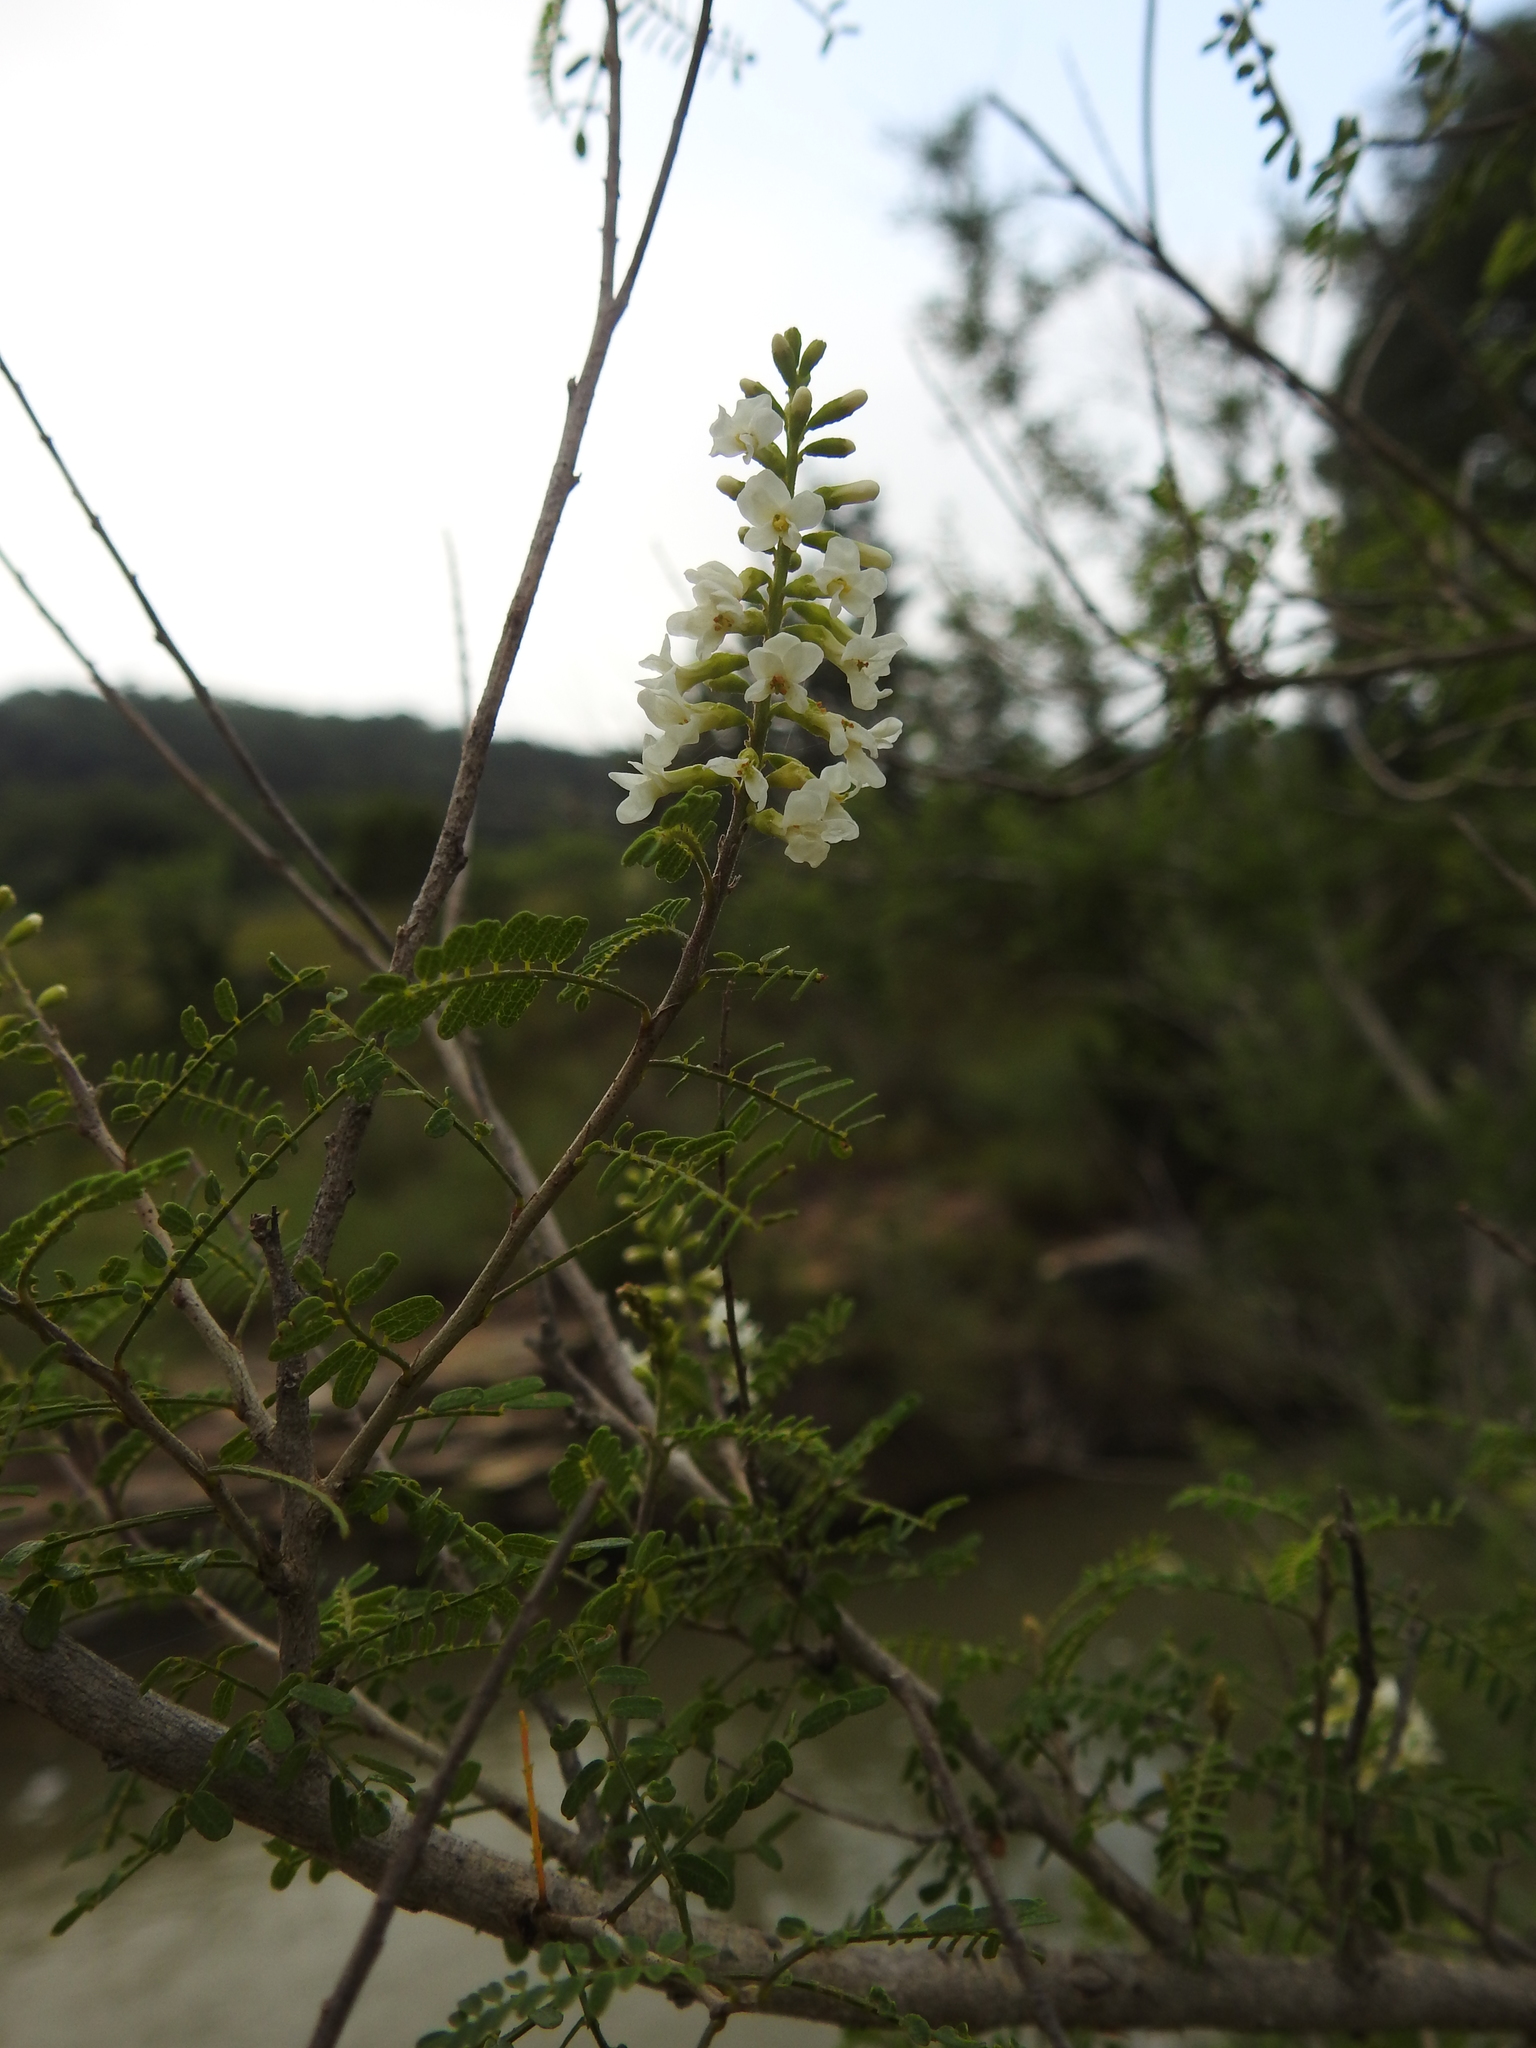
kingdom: Plantae
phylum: Tracheophyta
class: Magnoliopsida
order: Fabales
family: Fabaceae
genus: Eysenhardtia
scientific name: Eysenhardtia texana
